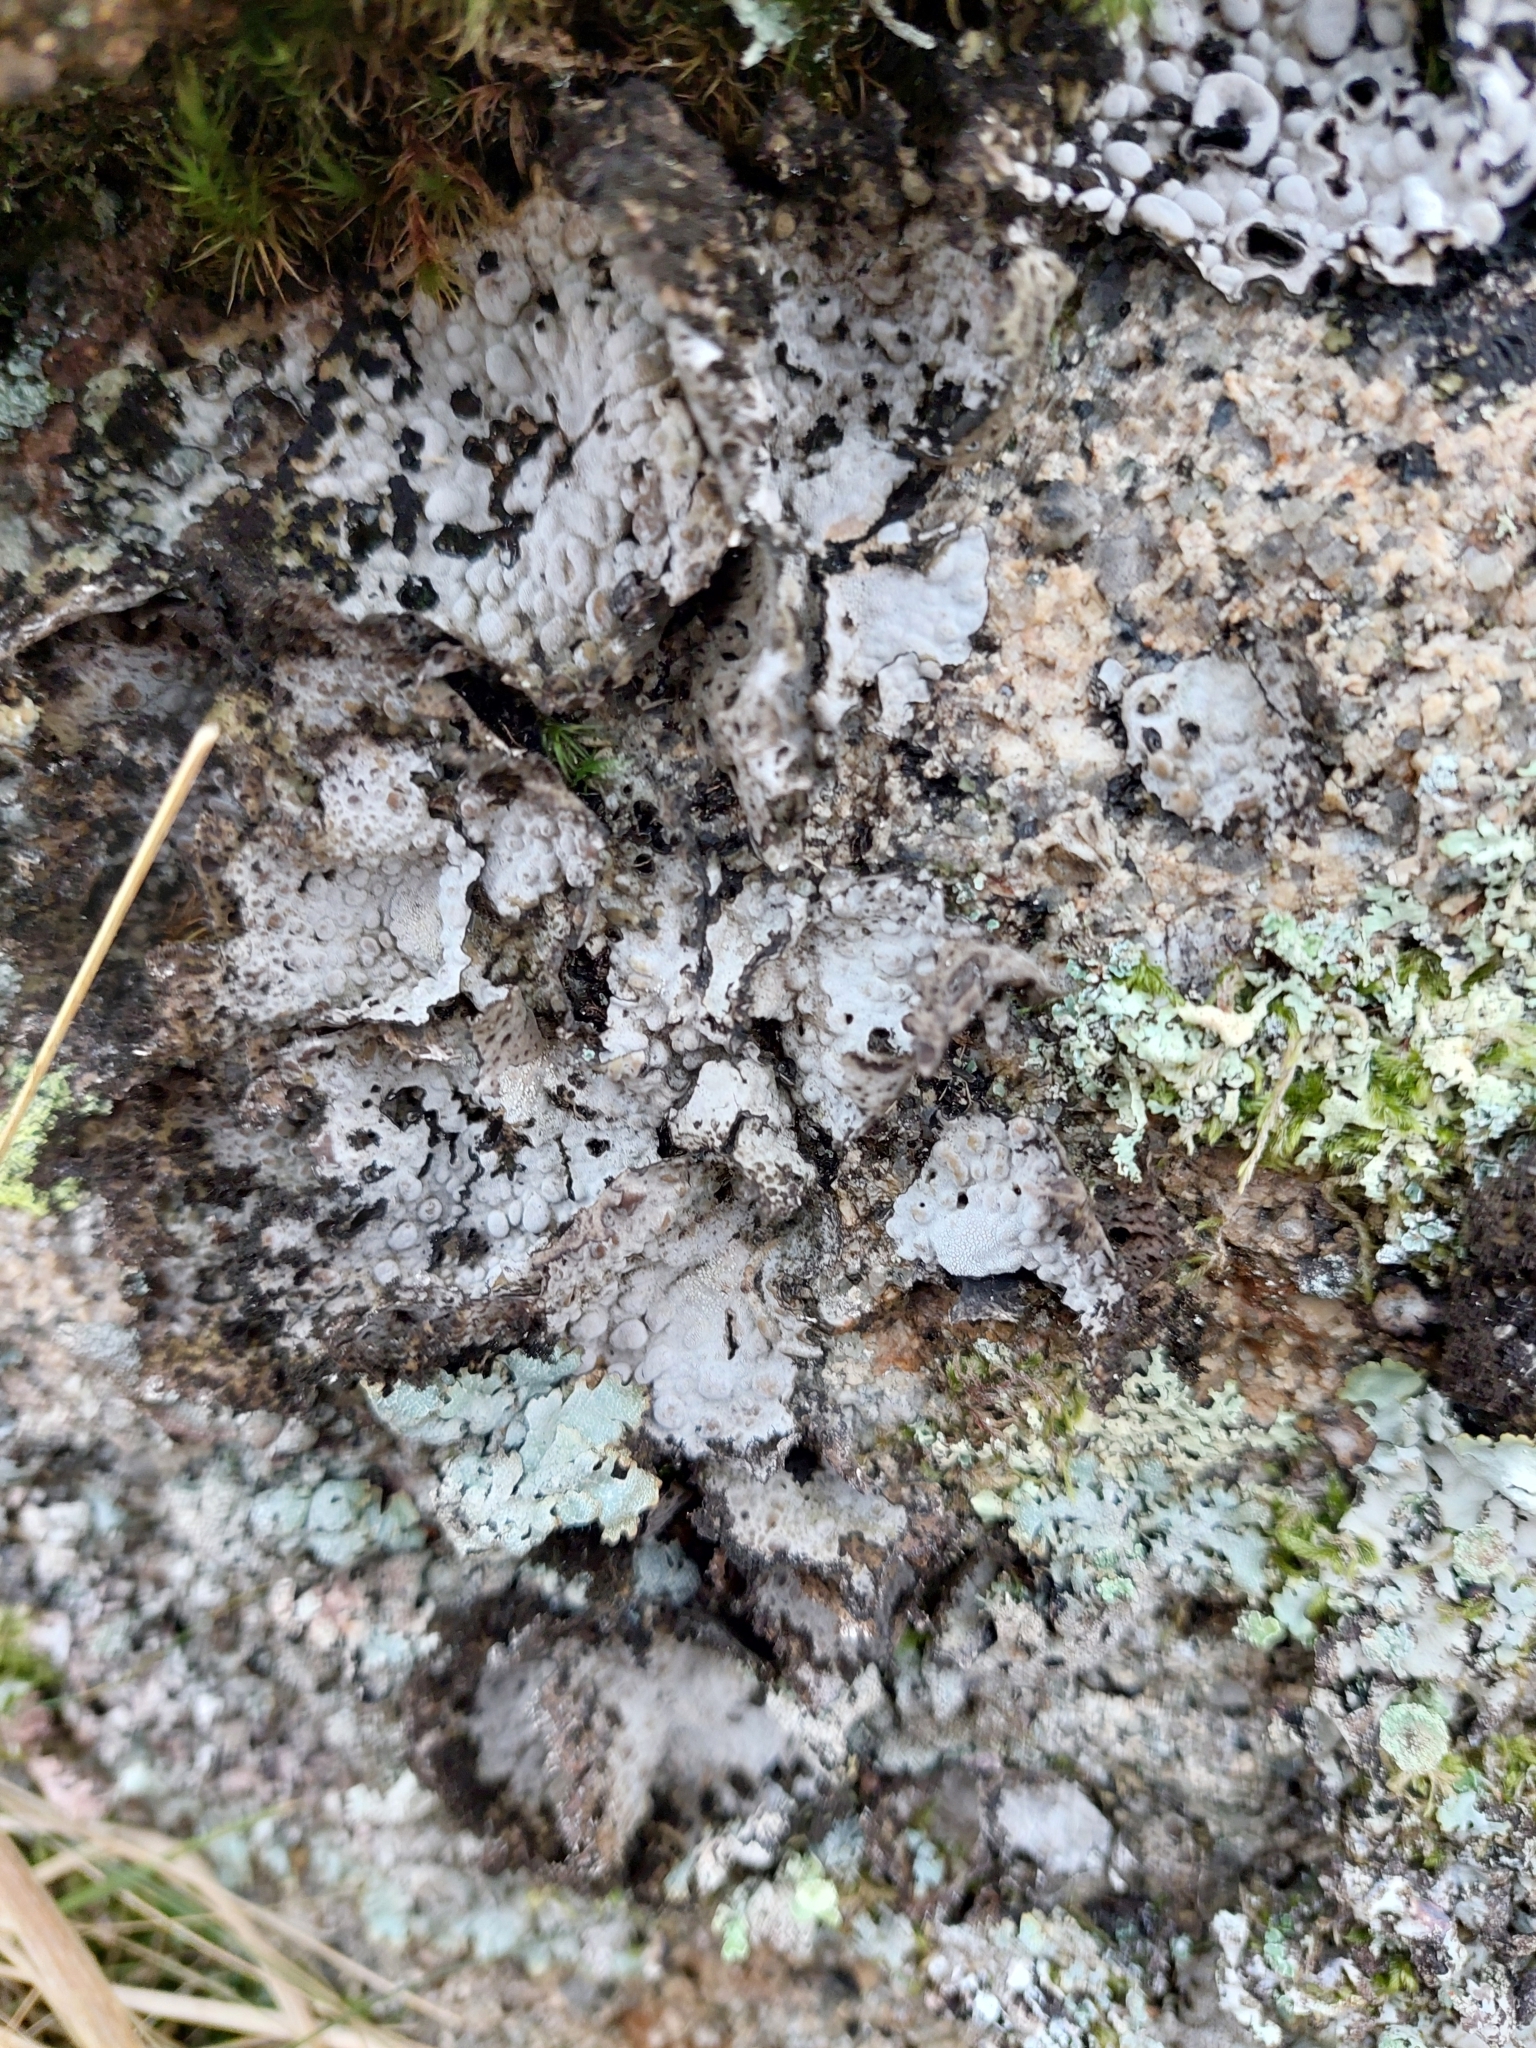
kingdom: Fungi
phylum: Ascomycota
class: Lecanoromycetes
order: Umbilicariales
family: Umbilicariaceae
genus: Lasallia
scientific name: Lasallia pustulata
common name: Blistered toadskin lichen
